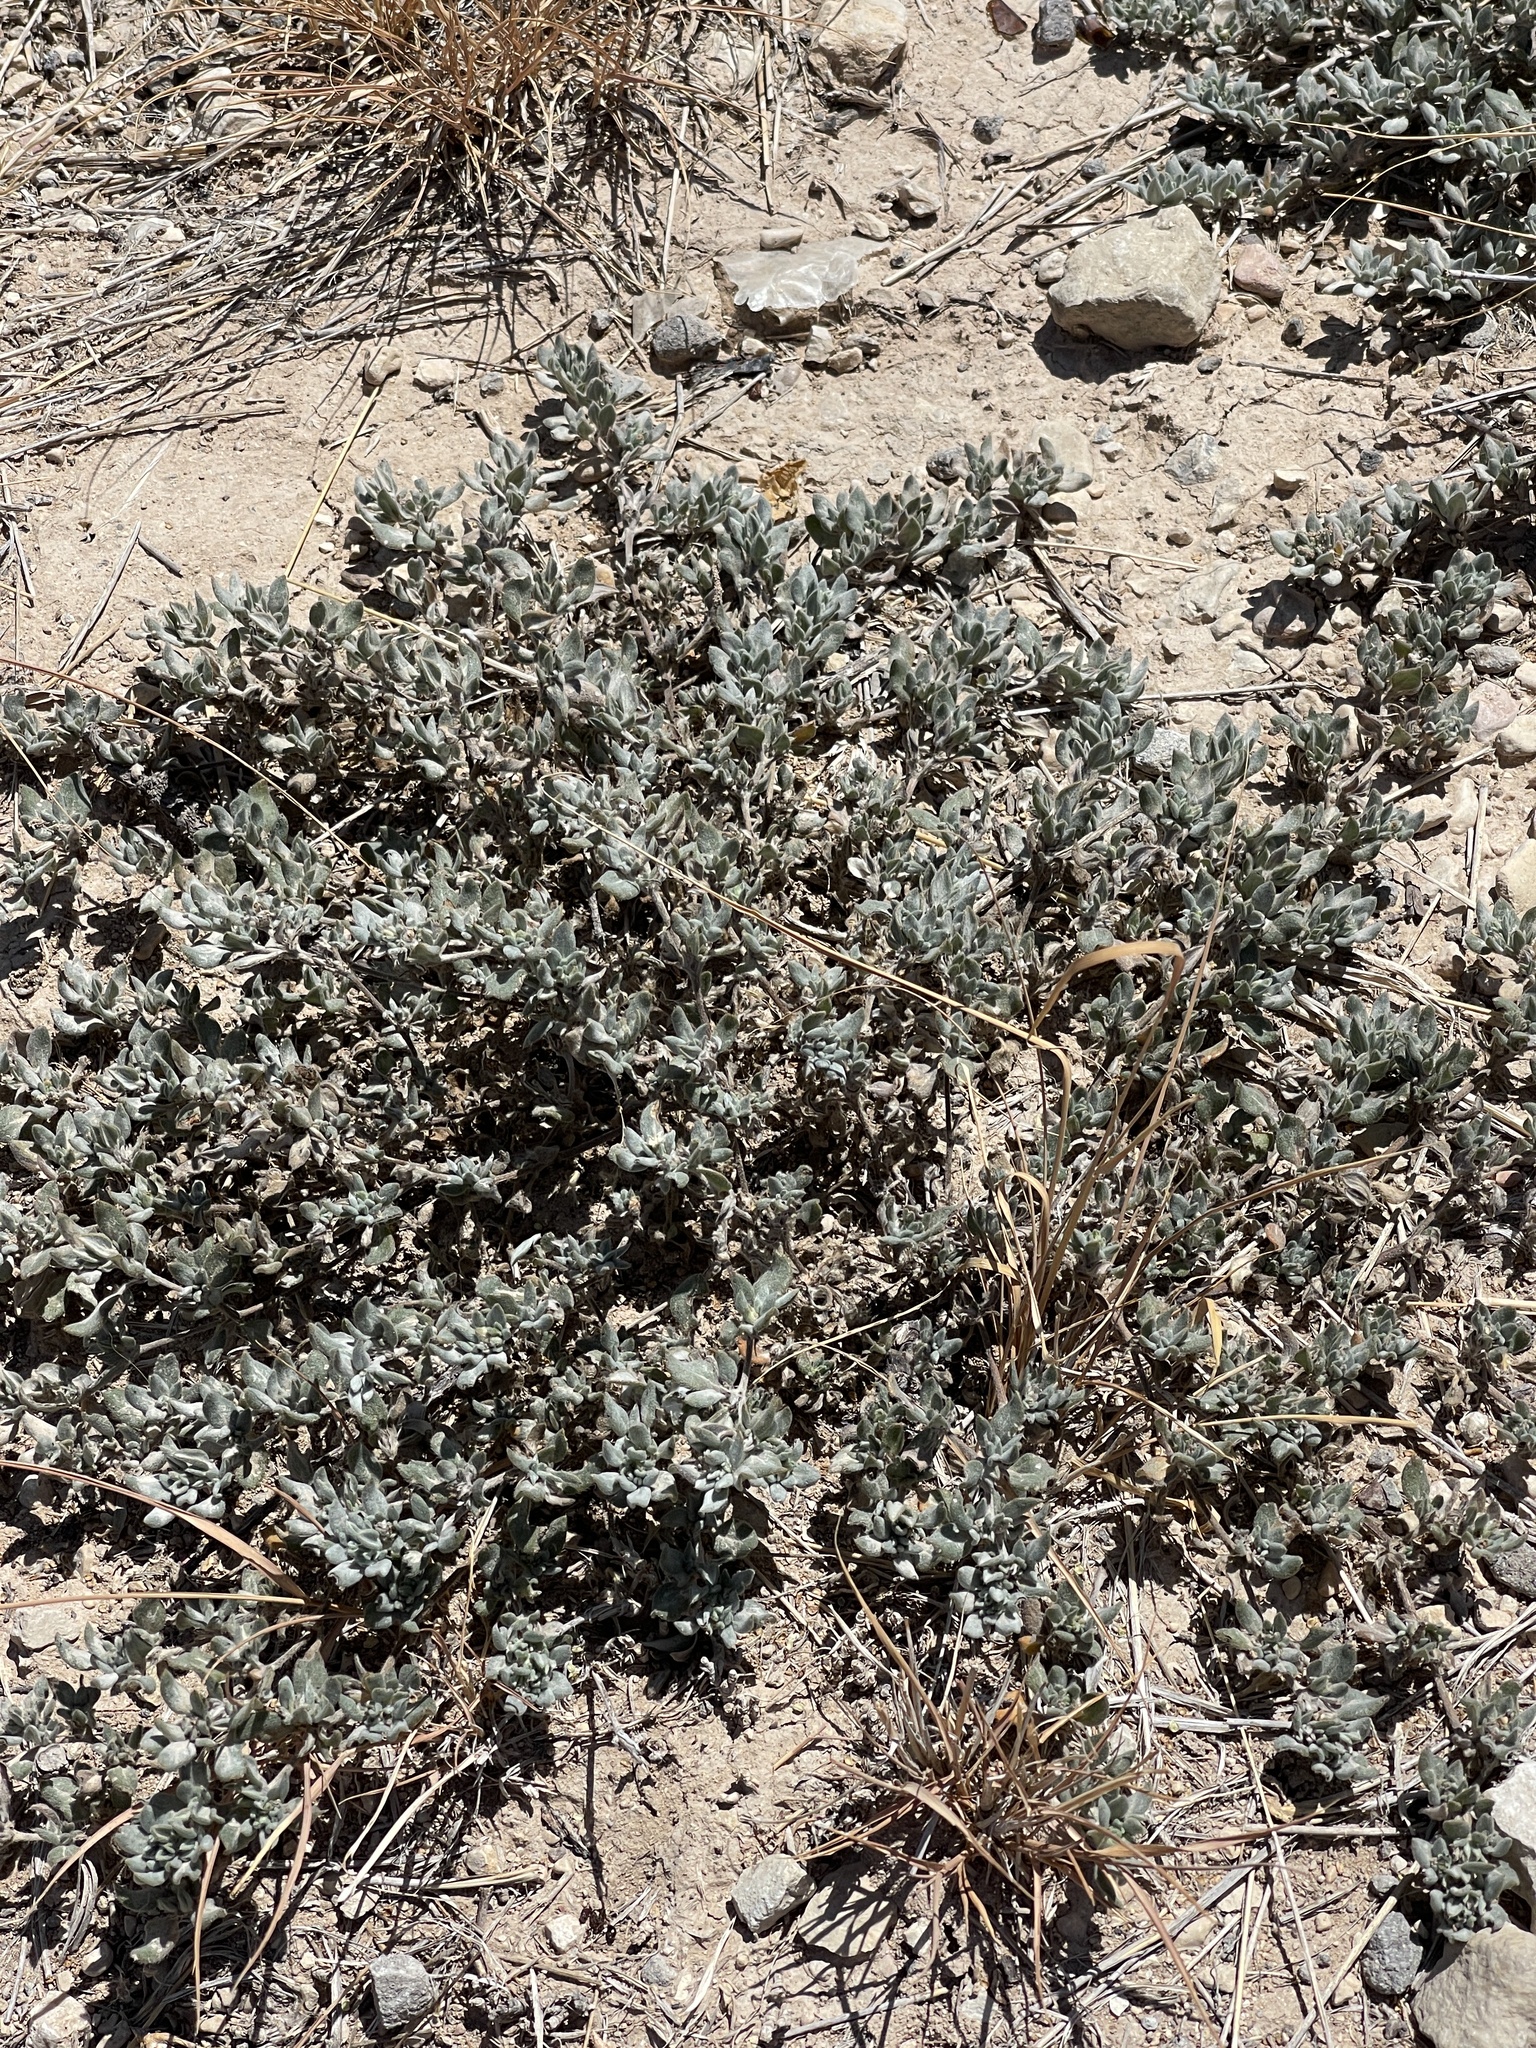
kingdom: Plantae
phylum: Tracheophyta
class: Magnoliopsida
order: Boraginales
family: Ehretiaceae
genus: Tiquilia
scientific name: Tiquilia canescens
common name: Hairy tiquilia
